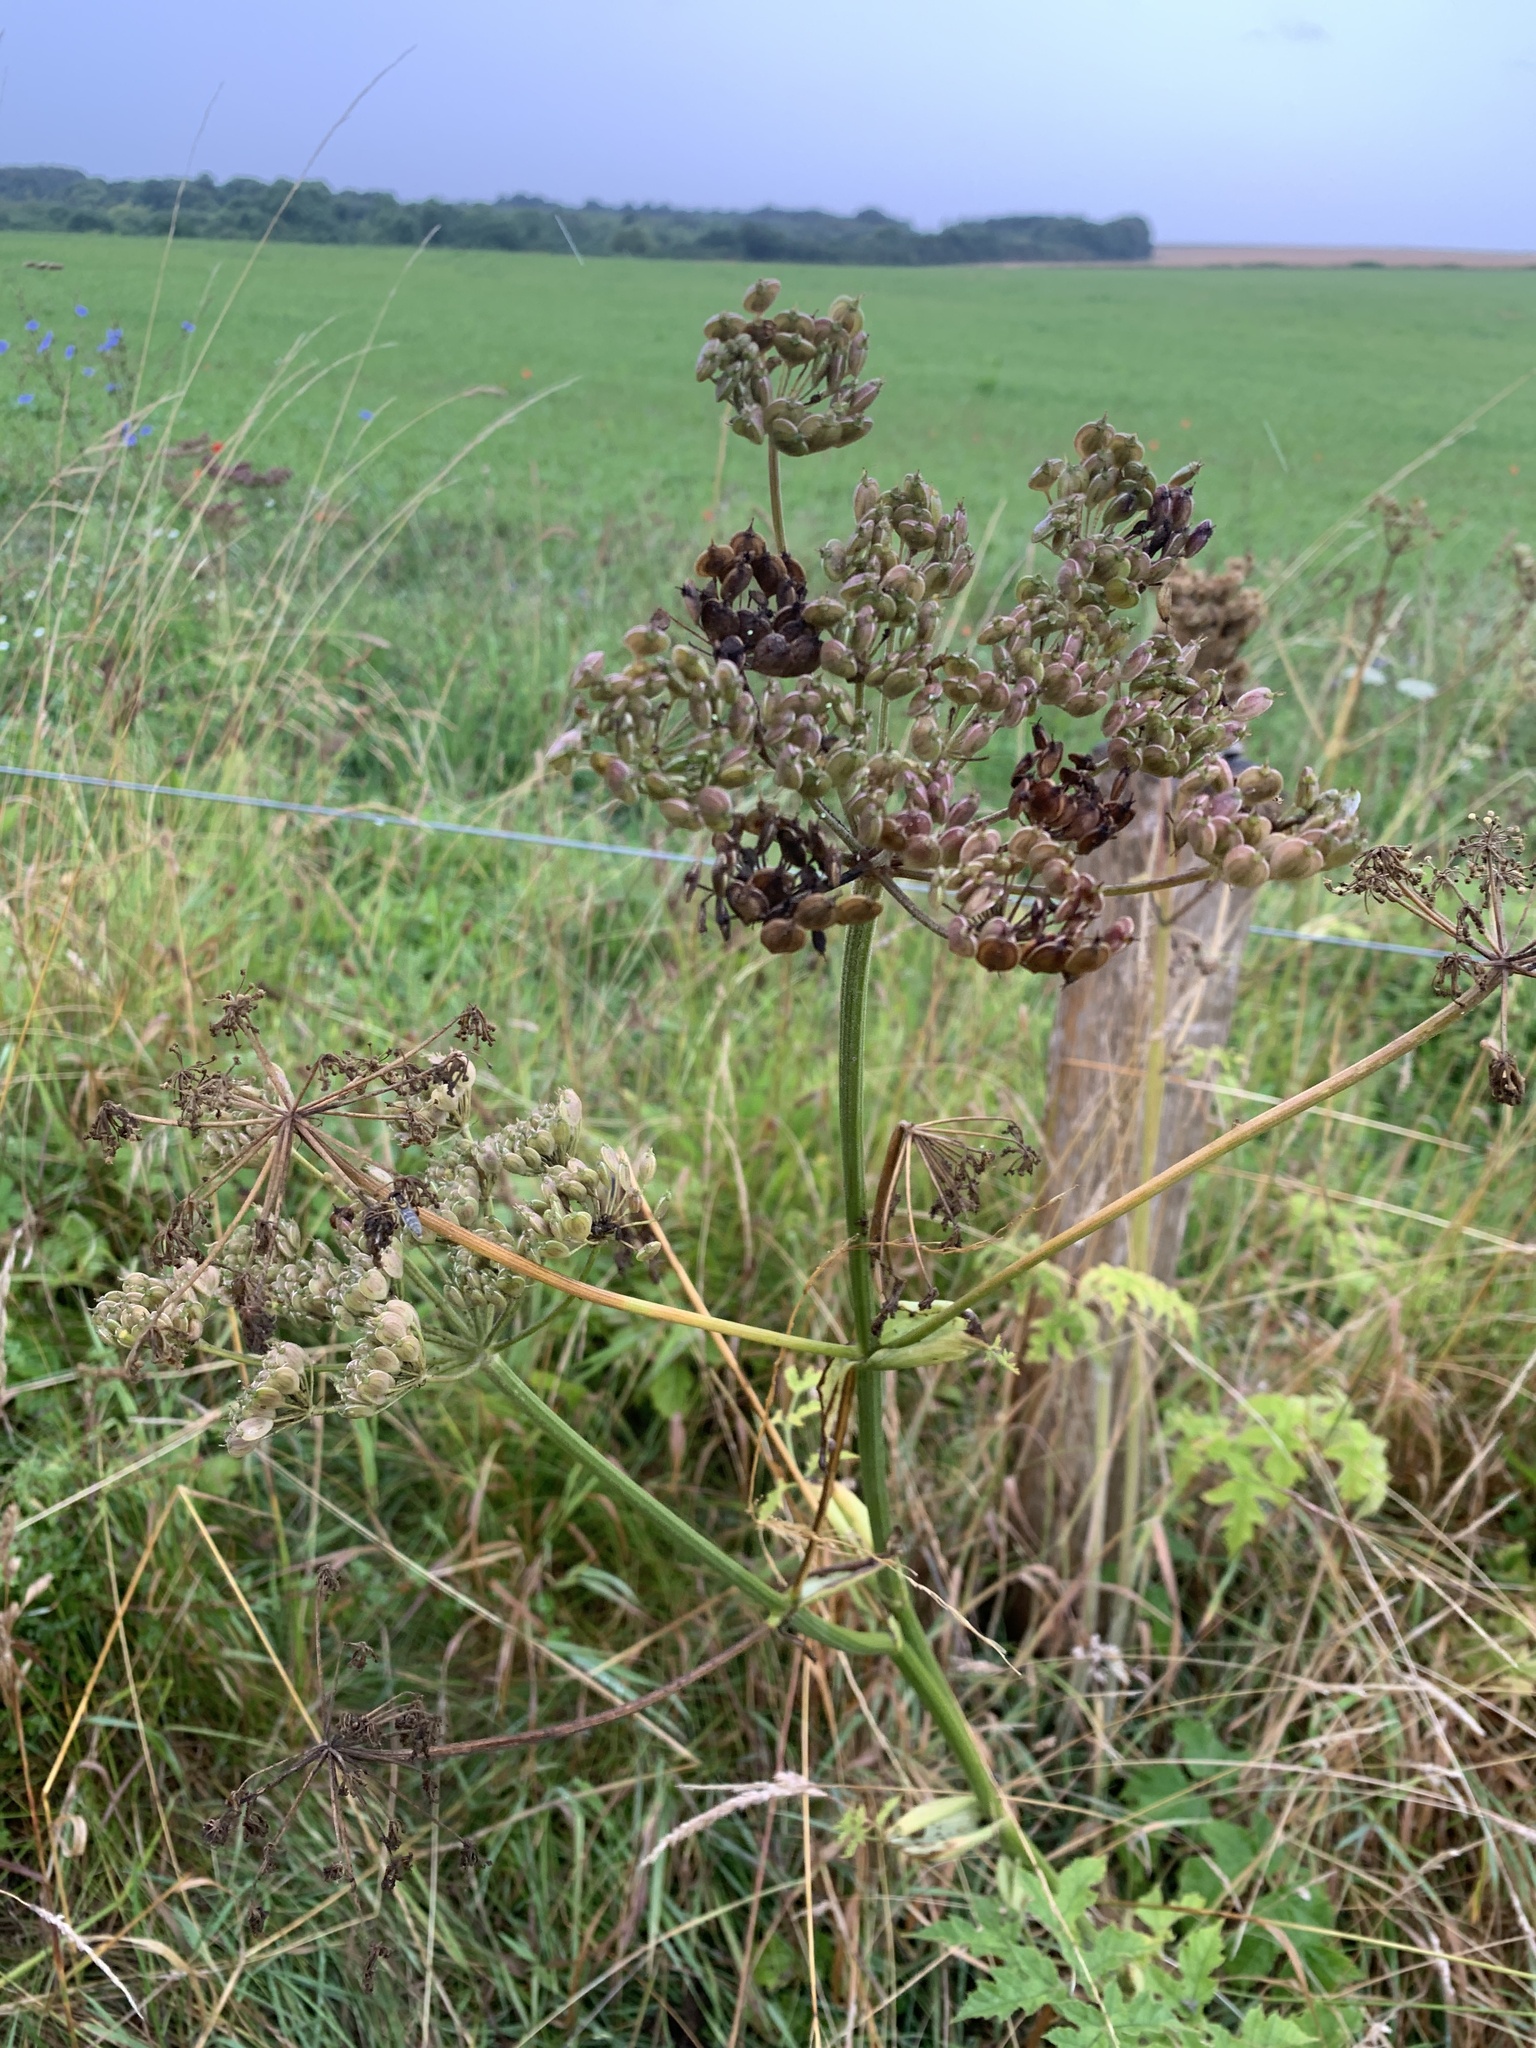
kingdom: Plantae
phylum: Tracheophyta
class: Magnoliopsida
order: Apiales
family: Apiaceae
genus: Heracleum
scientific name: Heracleum sphondylium
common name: Hogweed
